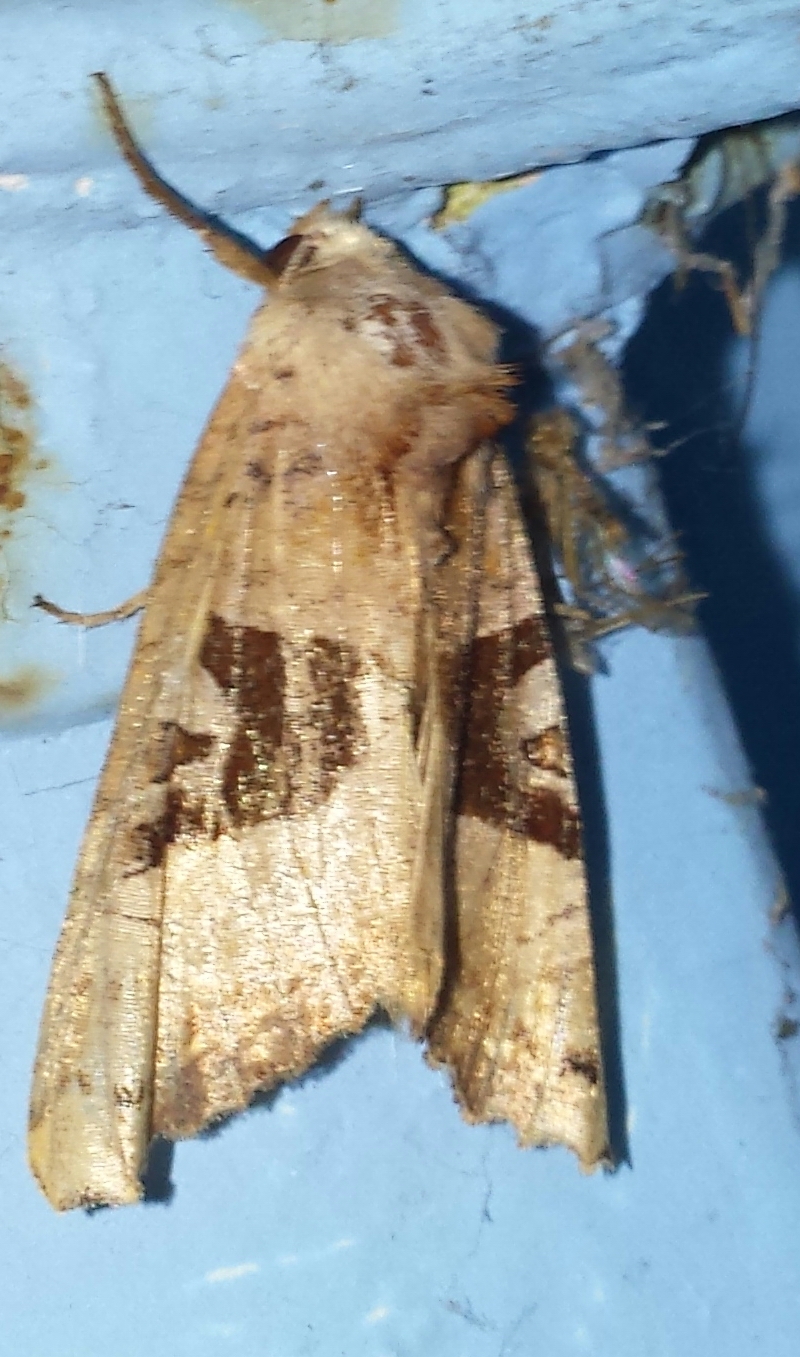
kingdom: Animalia
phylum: Arthropoda
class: Insecta
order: Lepidoptera
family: Noctuidae
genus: Phlogophora
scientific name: Phlogophora periculosa
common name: Brown angle shades
